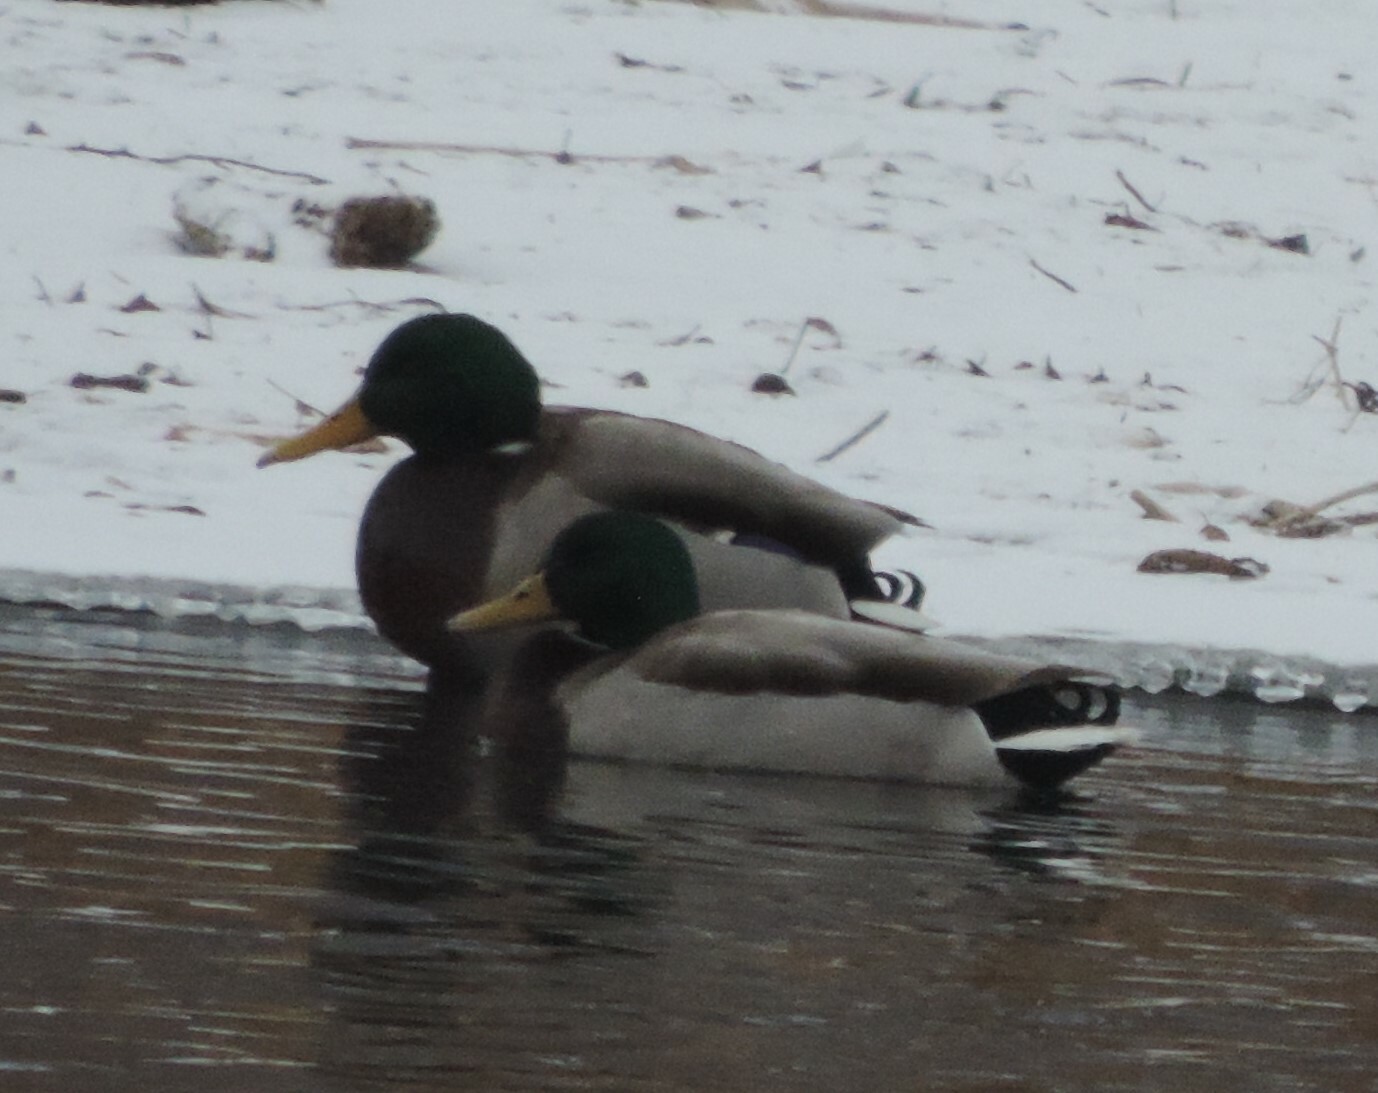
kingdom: Animalia
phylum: Chordata
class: Aves
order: Anseriformes
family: Anatidae
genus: Anas
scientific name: Anas platyrhynchos
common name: Mallard
